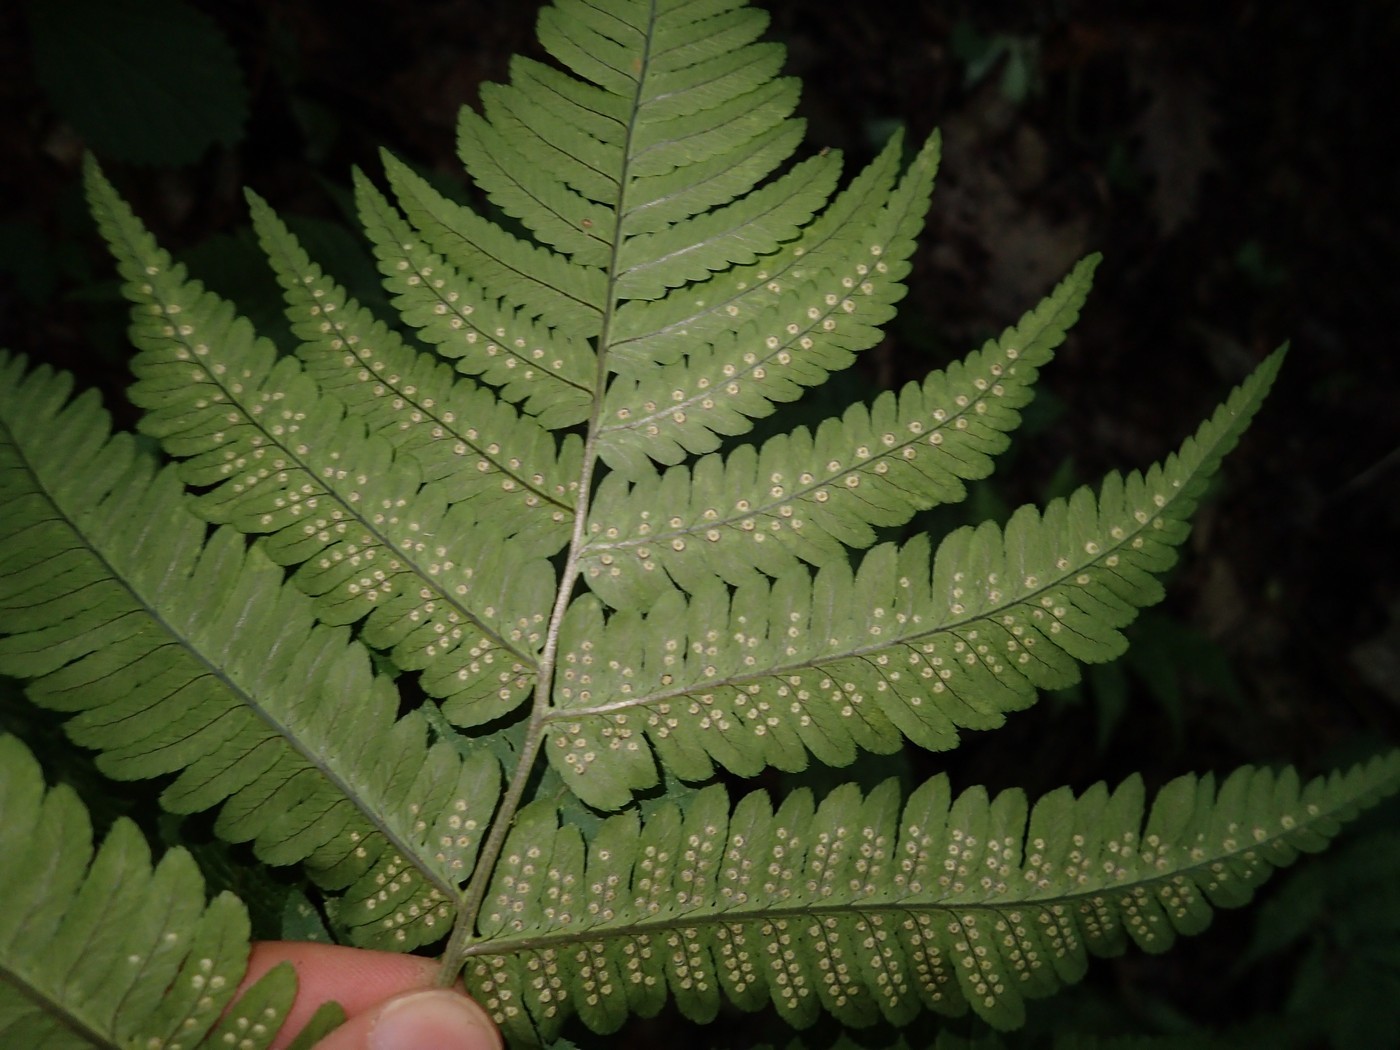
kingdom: Plantae
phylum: Tracheophyta
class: Polypodiopsida
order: Polypodiales
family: Dryopteridaceae
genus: Dryopteris
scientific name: Dryopteris goldieana
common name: Goldie's fern
